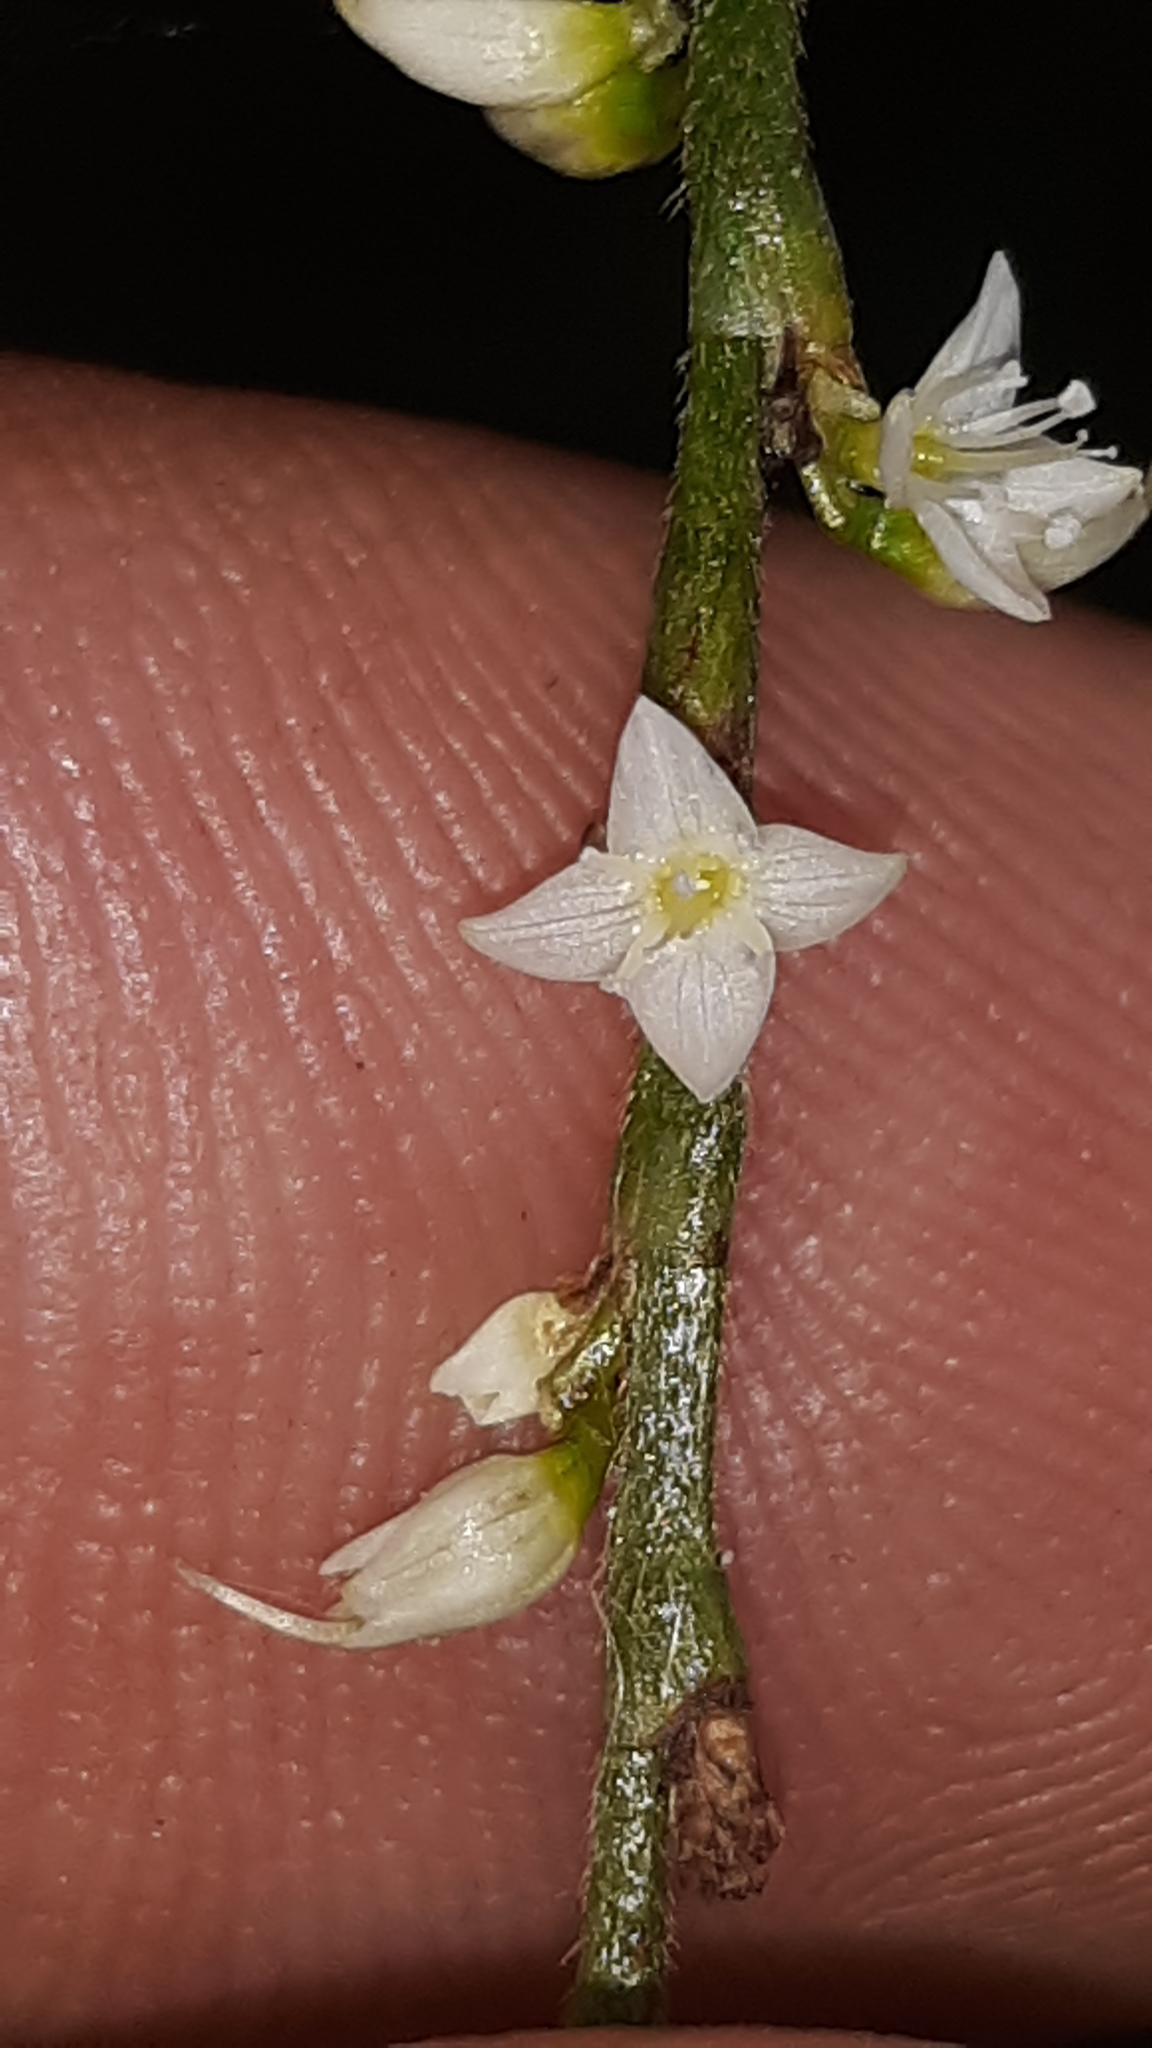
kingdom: Plantae
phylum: Tracheophyta
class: Magnoliopsida
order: Caryophyllales
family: Polygonaceae
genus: Persicaria
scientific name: Persicaria virginiana
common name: Jumpseed
